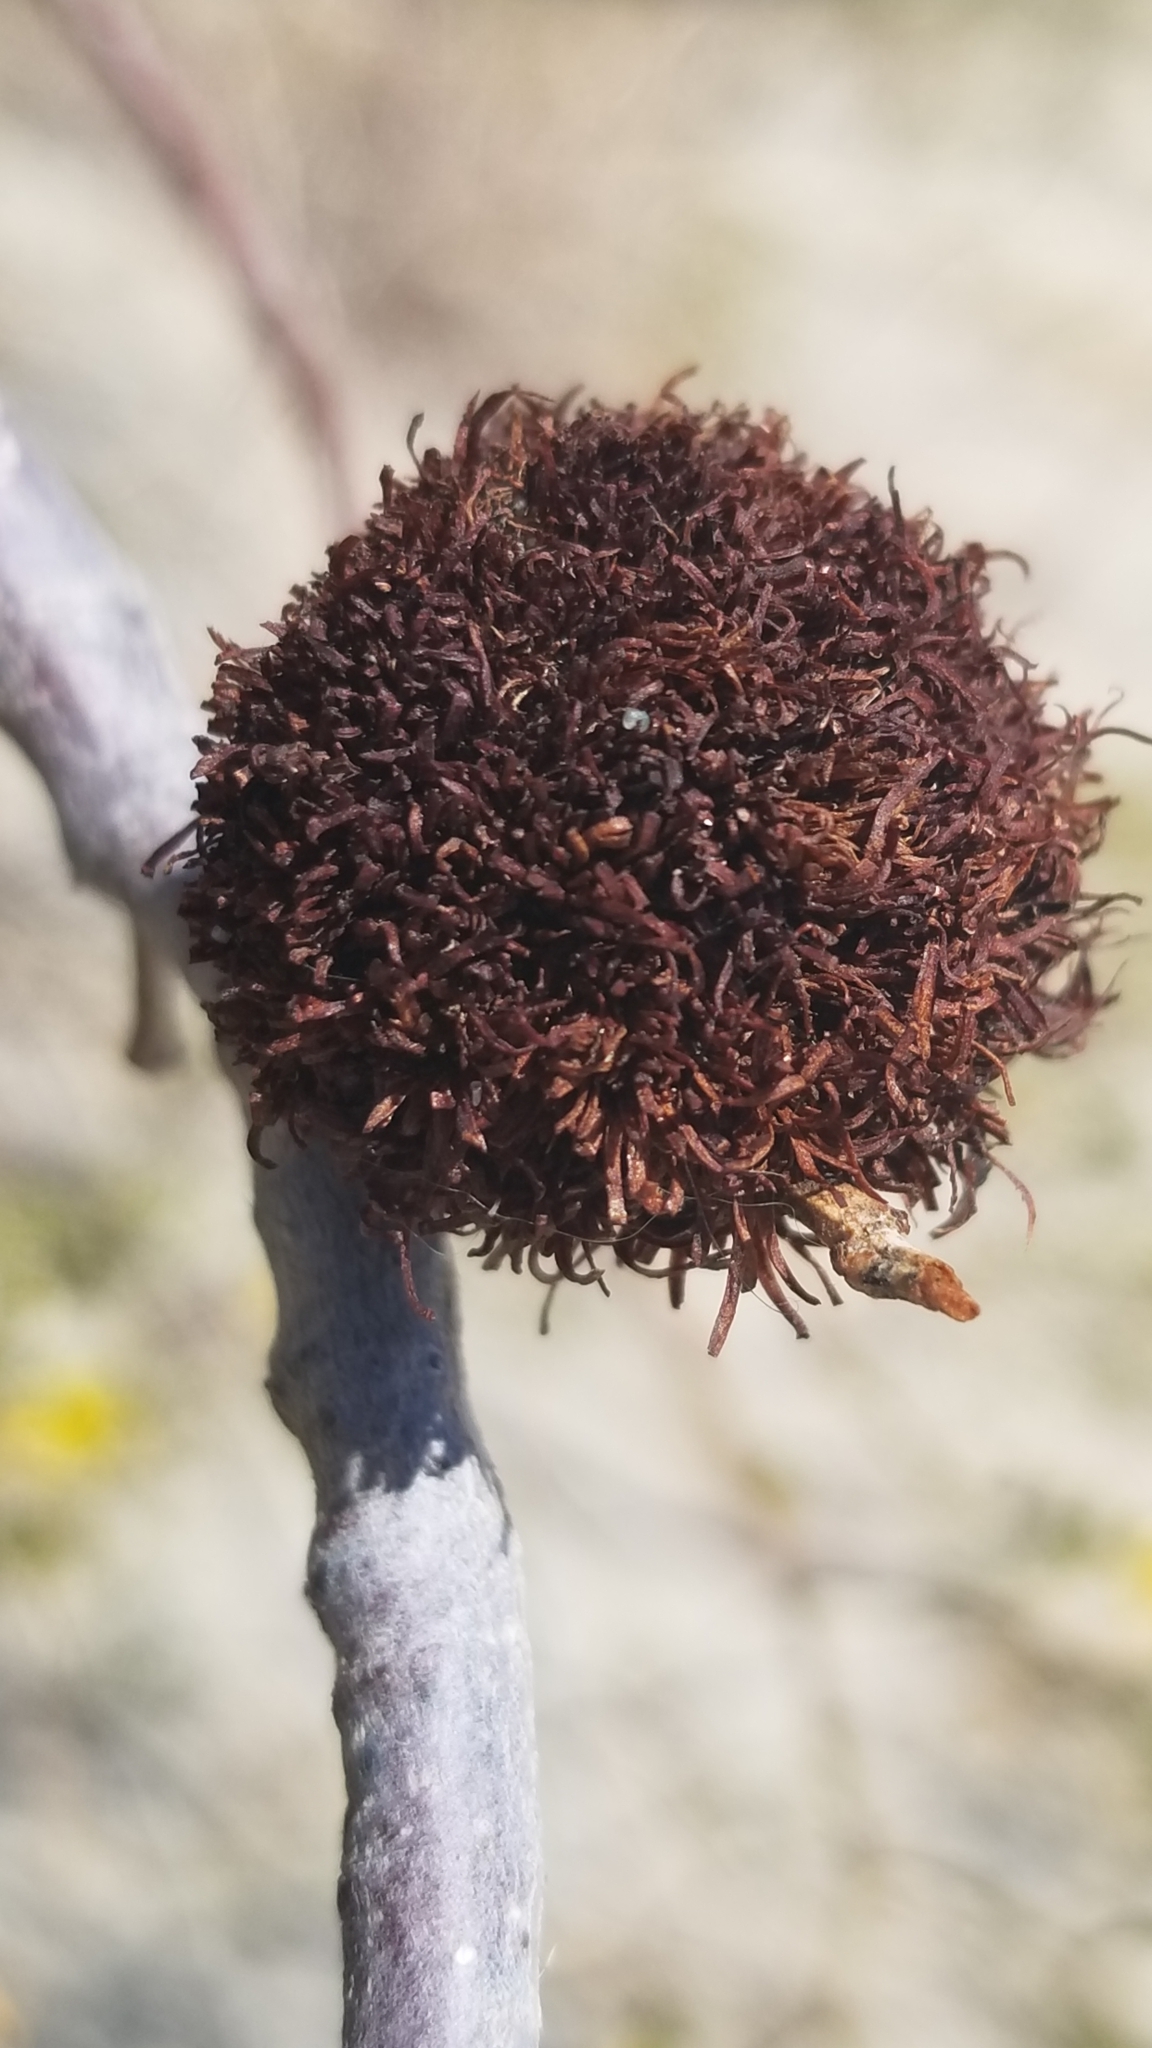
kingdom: Animalia
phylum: Arthropoda
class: Insecta
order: Diptera
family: Cecidomyiidae
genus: Asphondylia
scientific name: Asphondylia auripila
